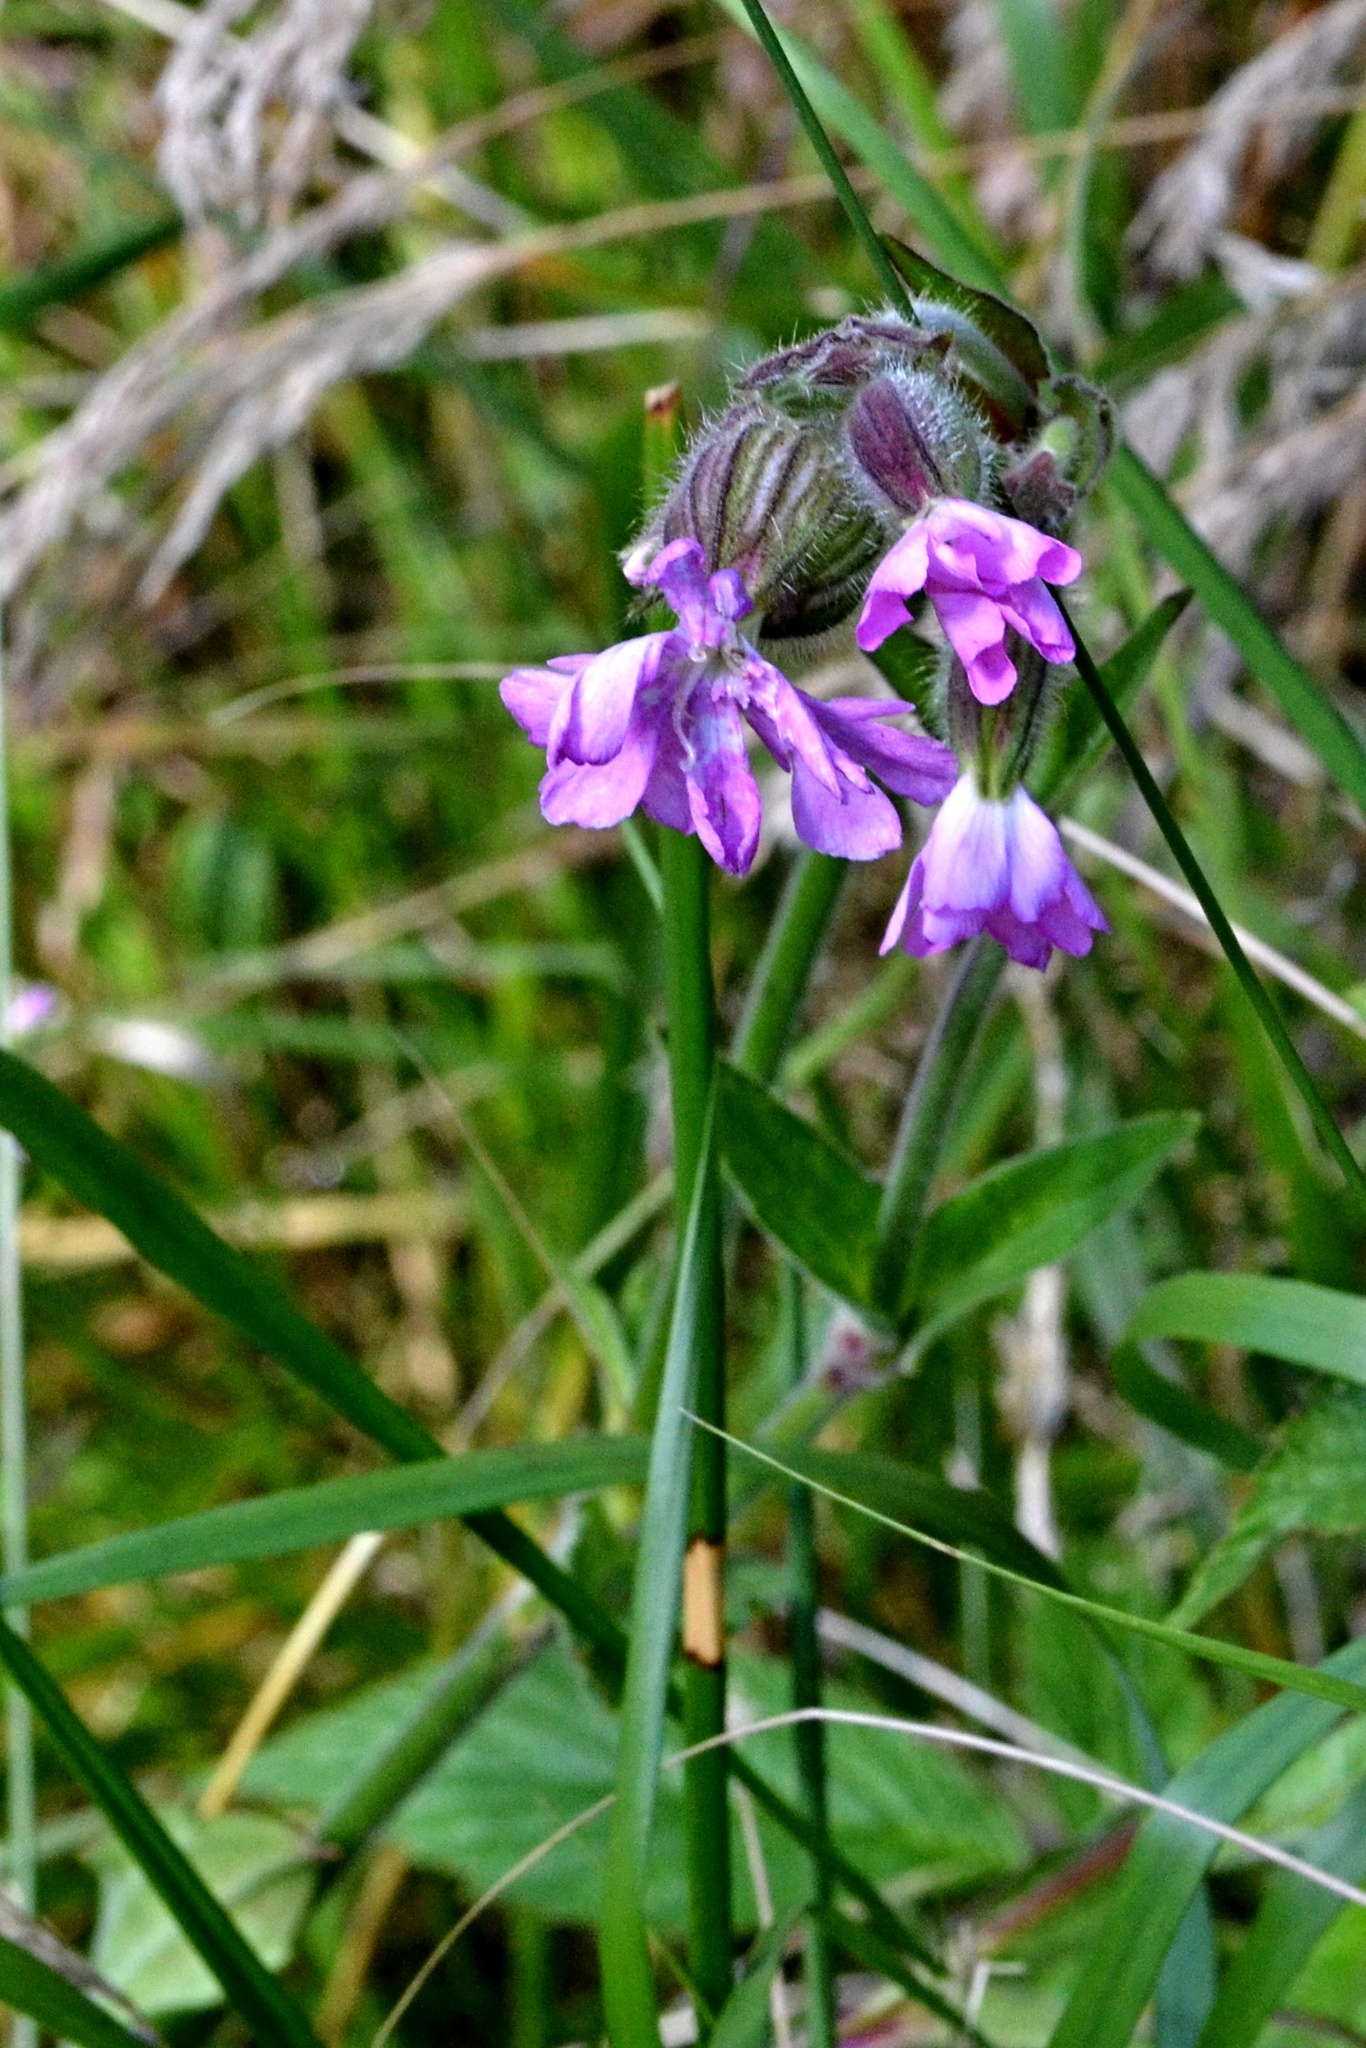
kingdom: Plantae
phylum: Tracheophyta
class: Magnoliopsida
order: Caryophyllales
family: Caryophyllaceae
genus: Silene
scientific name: Silene dioica
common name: Red campion
